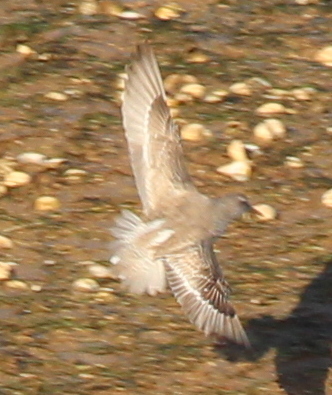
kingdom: Animalia
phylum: Chordata
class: Aves
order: Charadriiformes
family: Scolopacidae
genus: Calidris
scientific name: Calidris canutus
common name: Red knot
